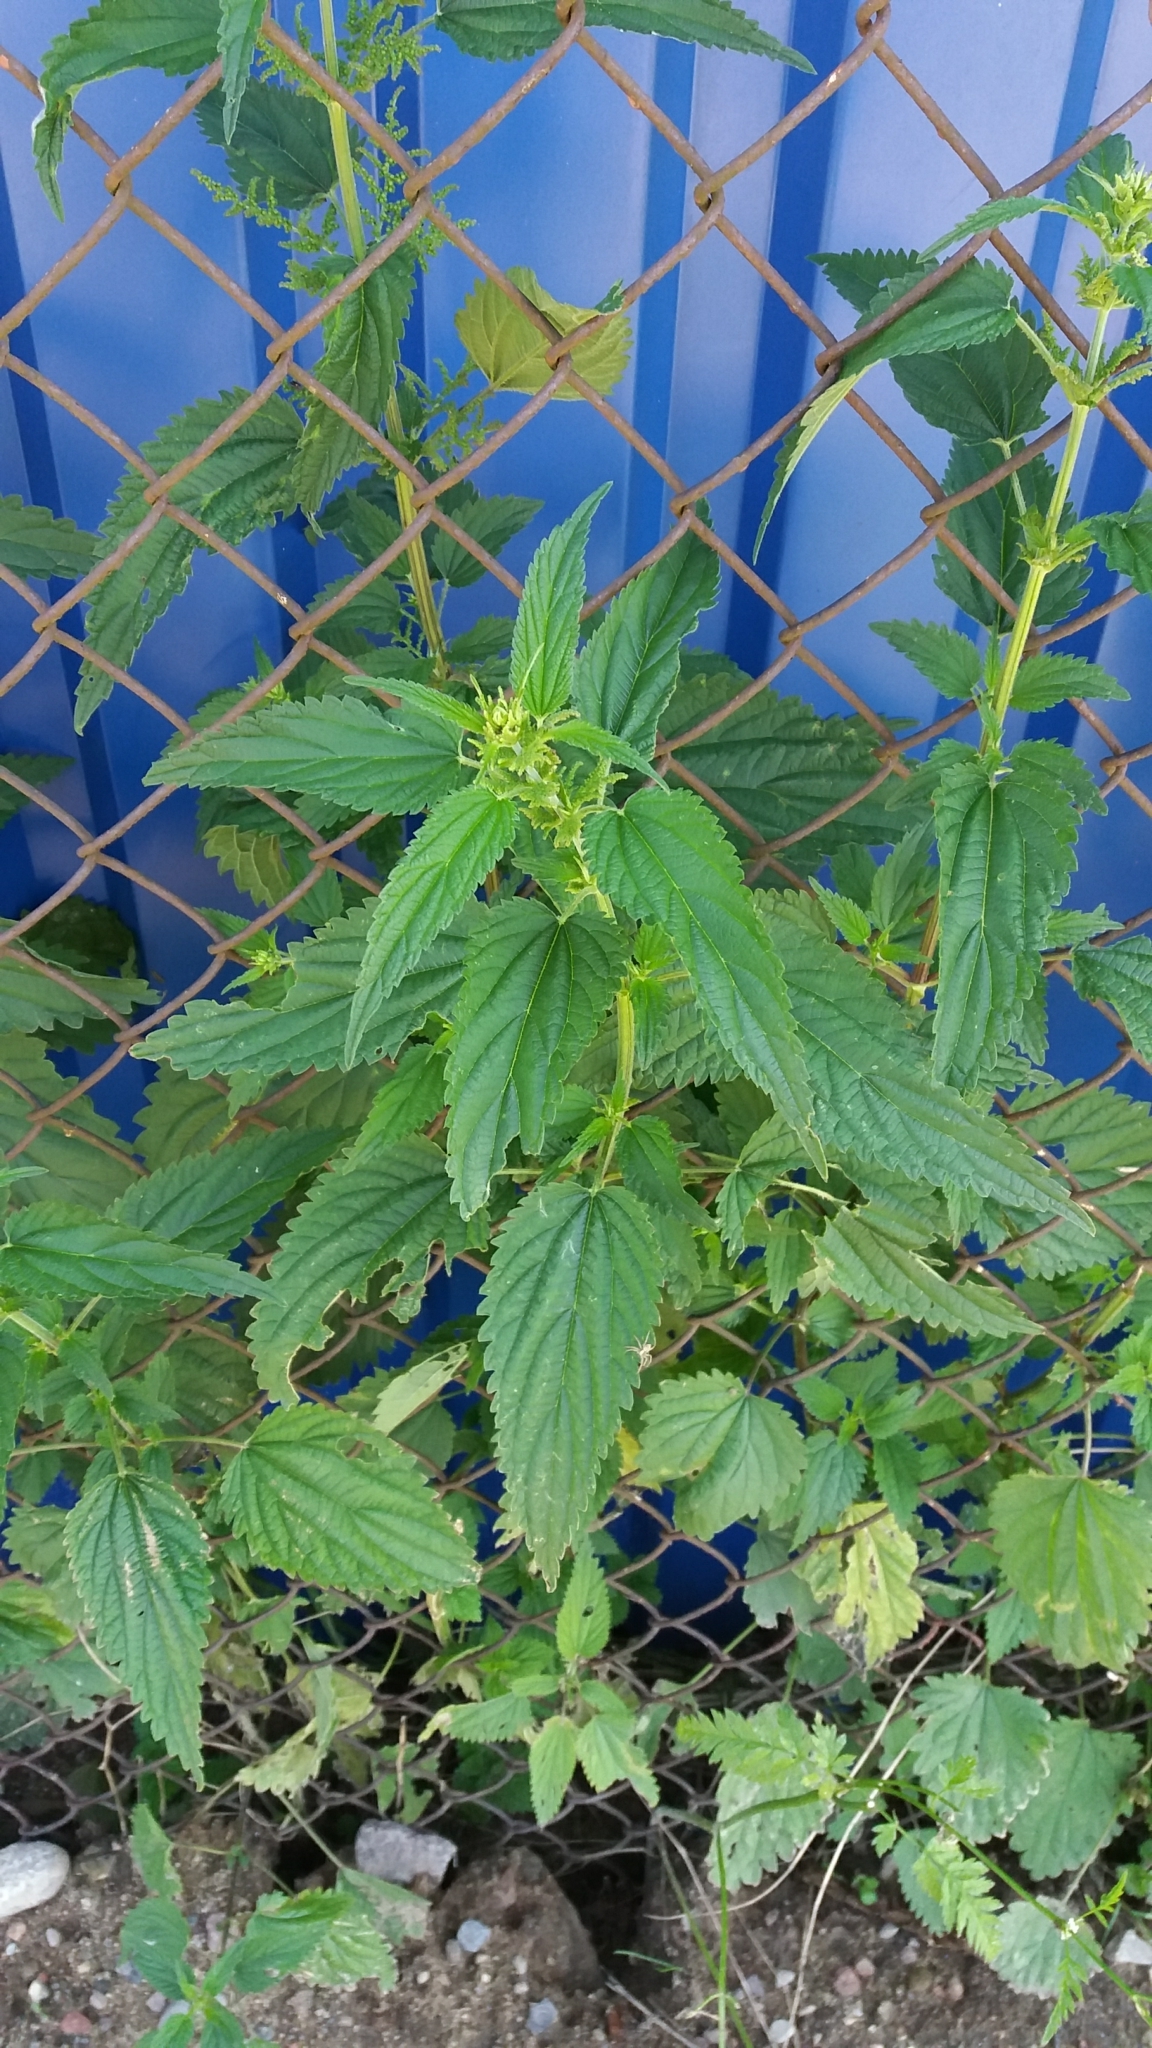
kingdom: Plantae
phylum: Tracheophyta
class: Magnoliopsida
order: Rosales
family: Urticaceae
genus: Urtica
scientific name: Urtica dioica
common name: Common nettle
